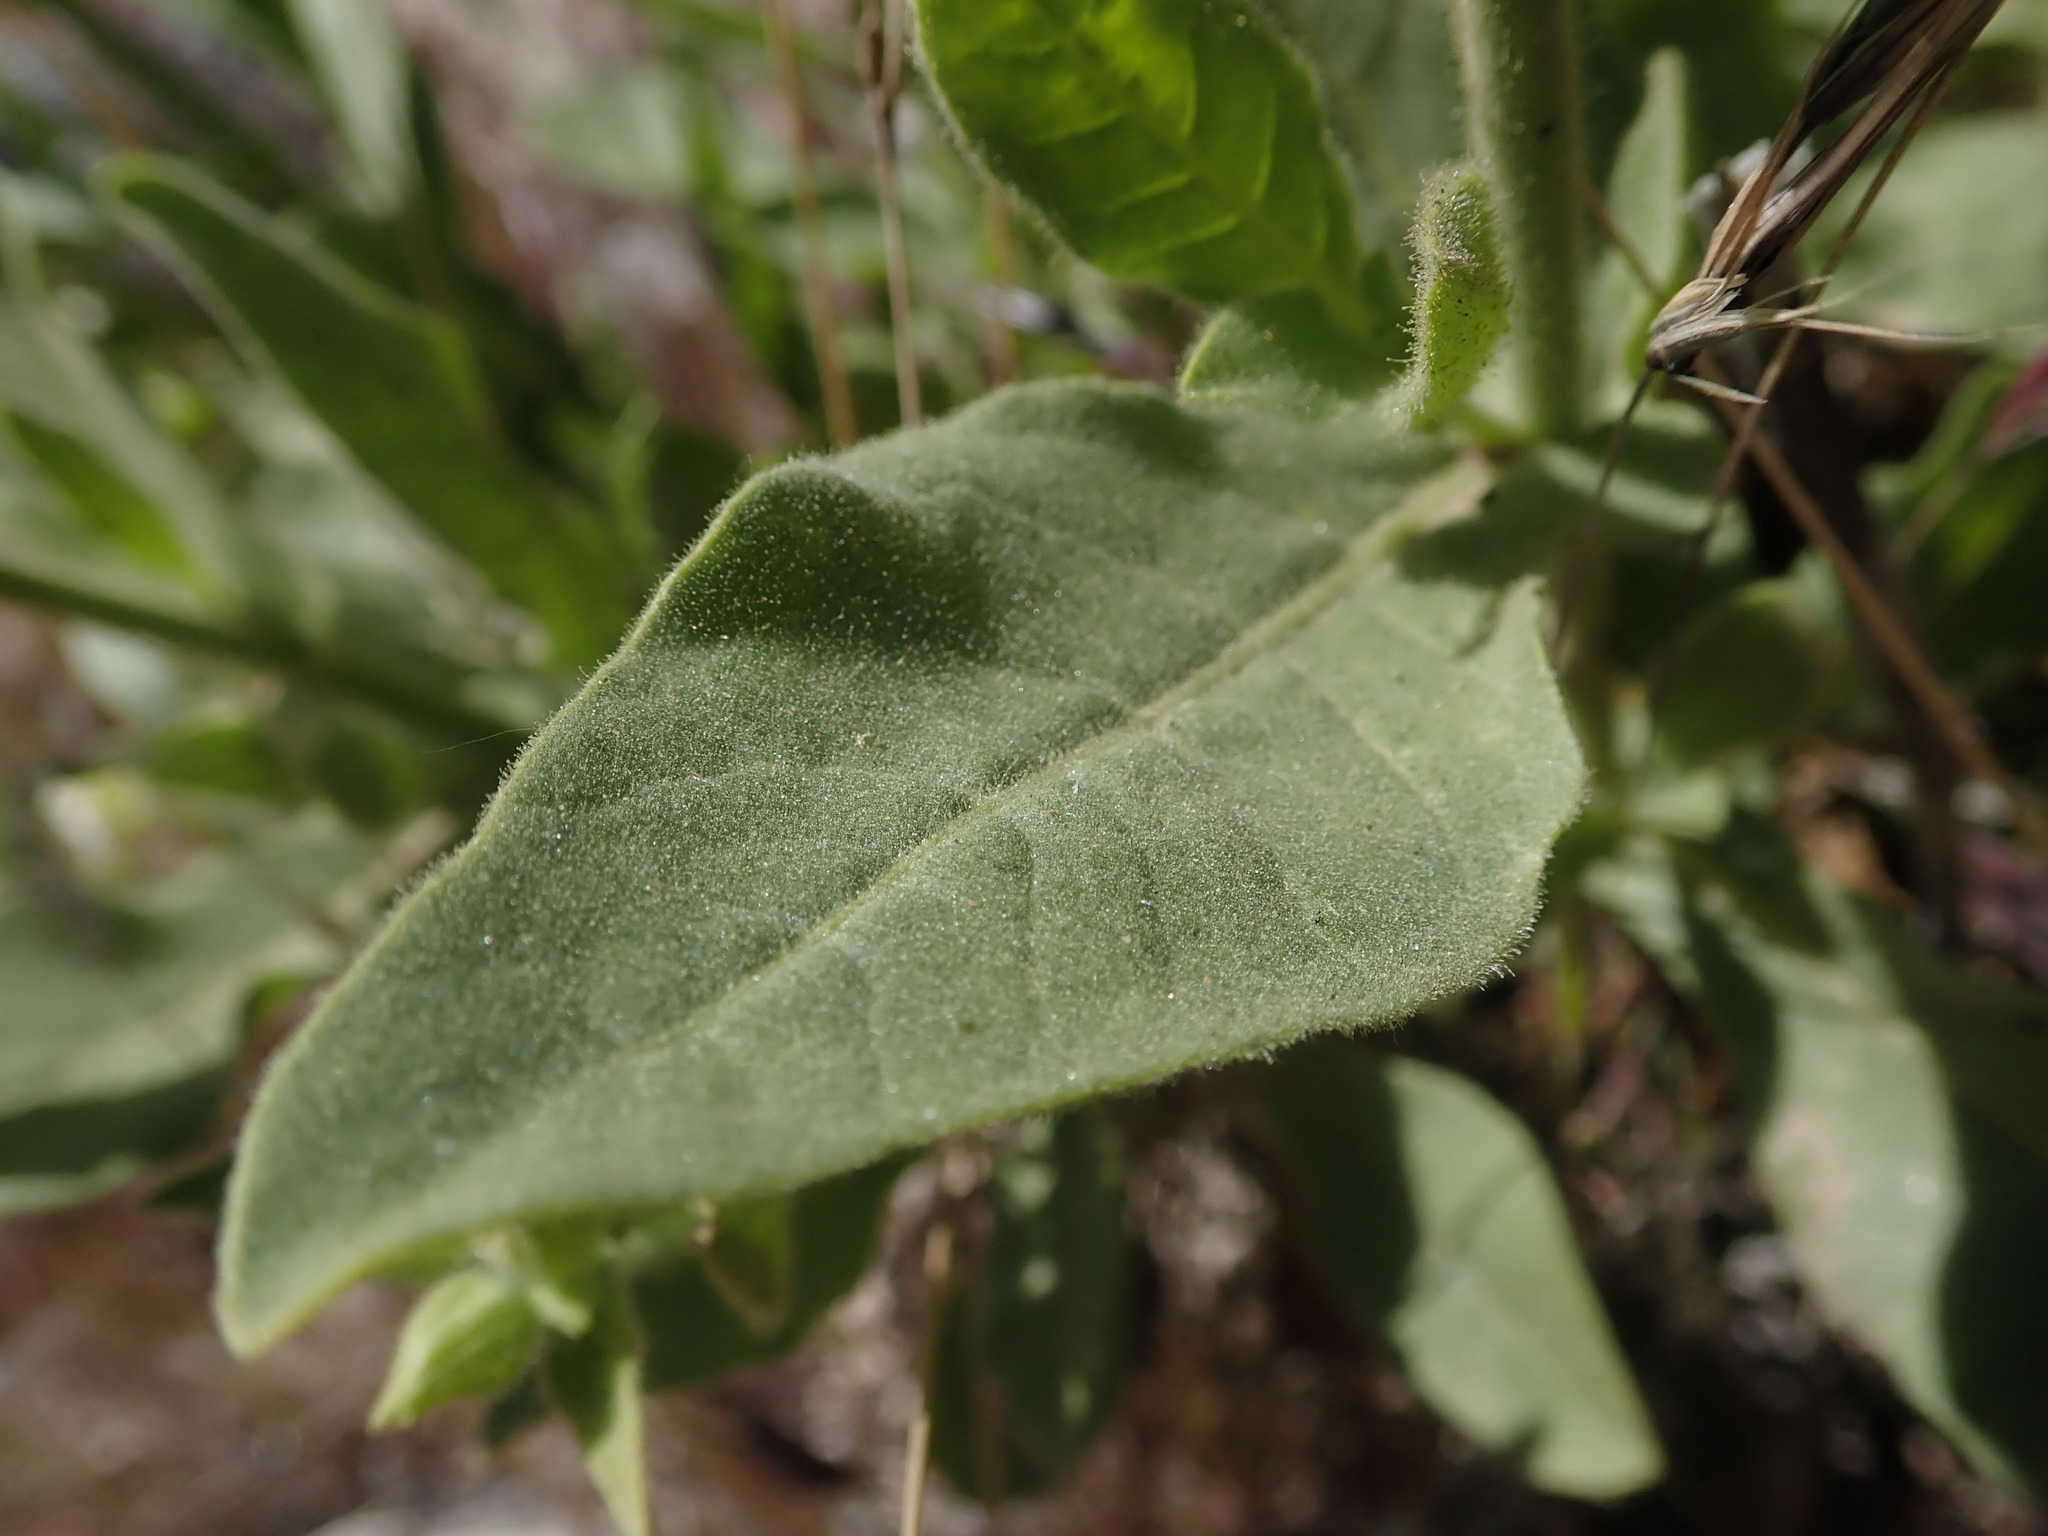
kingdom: Plantae
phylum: Tracheophyta
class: Magnoliopsida
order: Solanales
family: Solanaceae
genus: Nicotiana
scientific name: Nicotiana obtusifolia
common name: Desert tobacco
